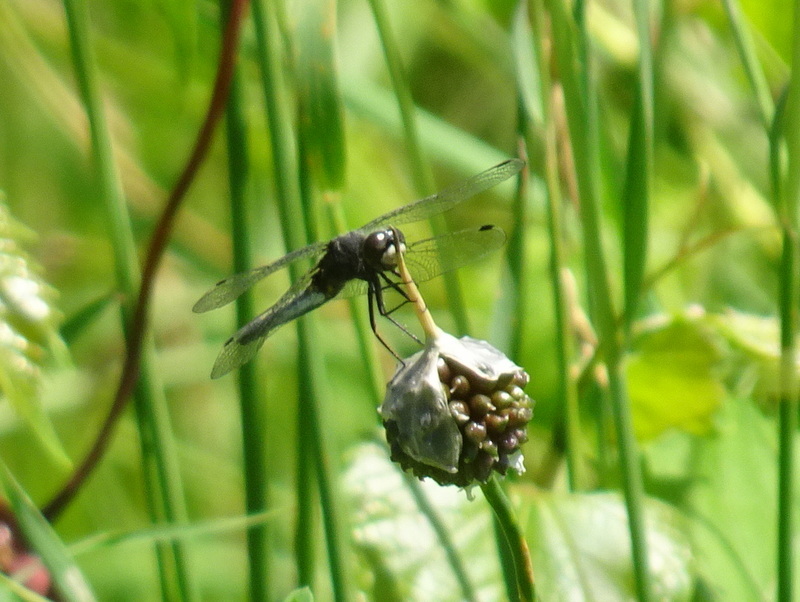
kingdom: Animalia
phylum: Arthropoda
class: Insecta
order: Odonata
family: Libellulidae
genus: Leucorrhinia
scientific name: Leucorrhinia intacta
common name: Dot-tailed whiteface
